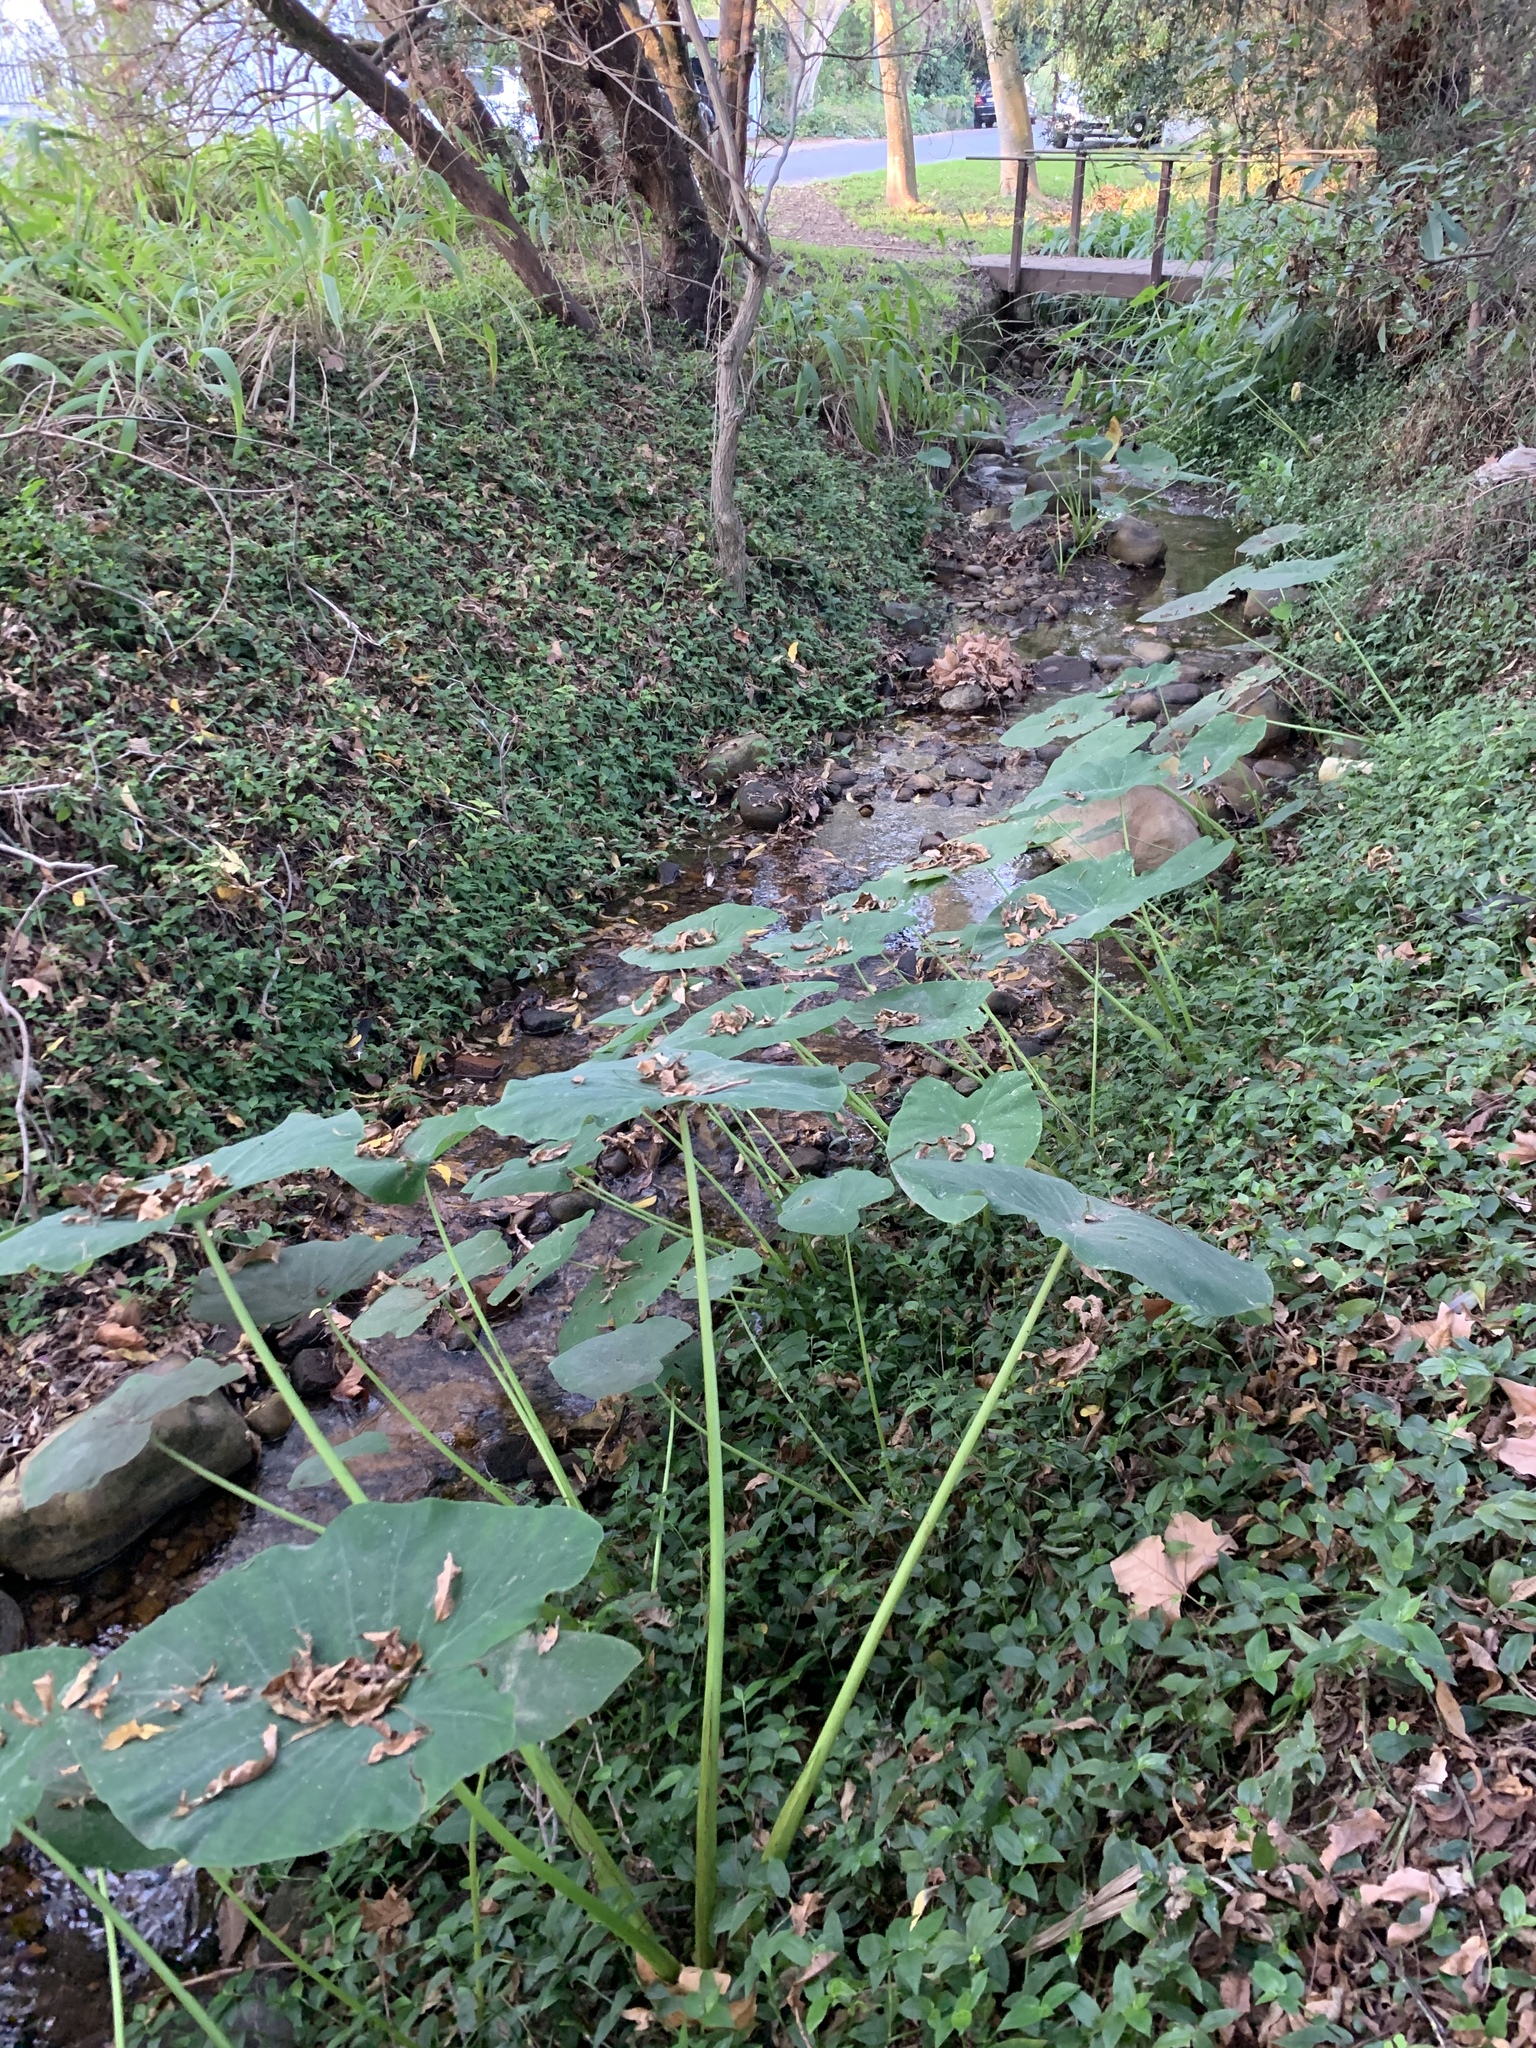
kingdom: Plantae
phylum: Tracheophyta
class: Liliopsida
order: Alismatales
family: Araceae
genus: Colocasia
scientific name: Colocasia esculenta
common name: Taro
